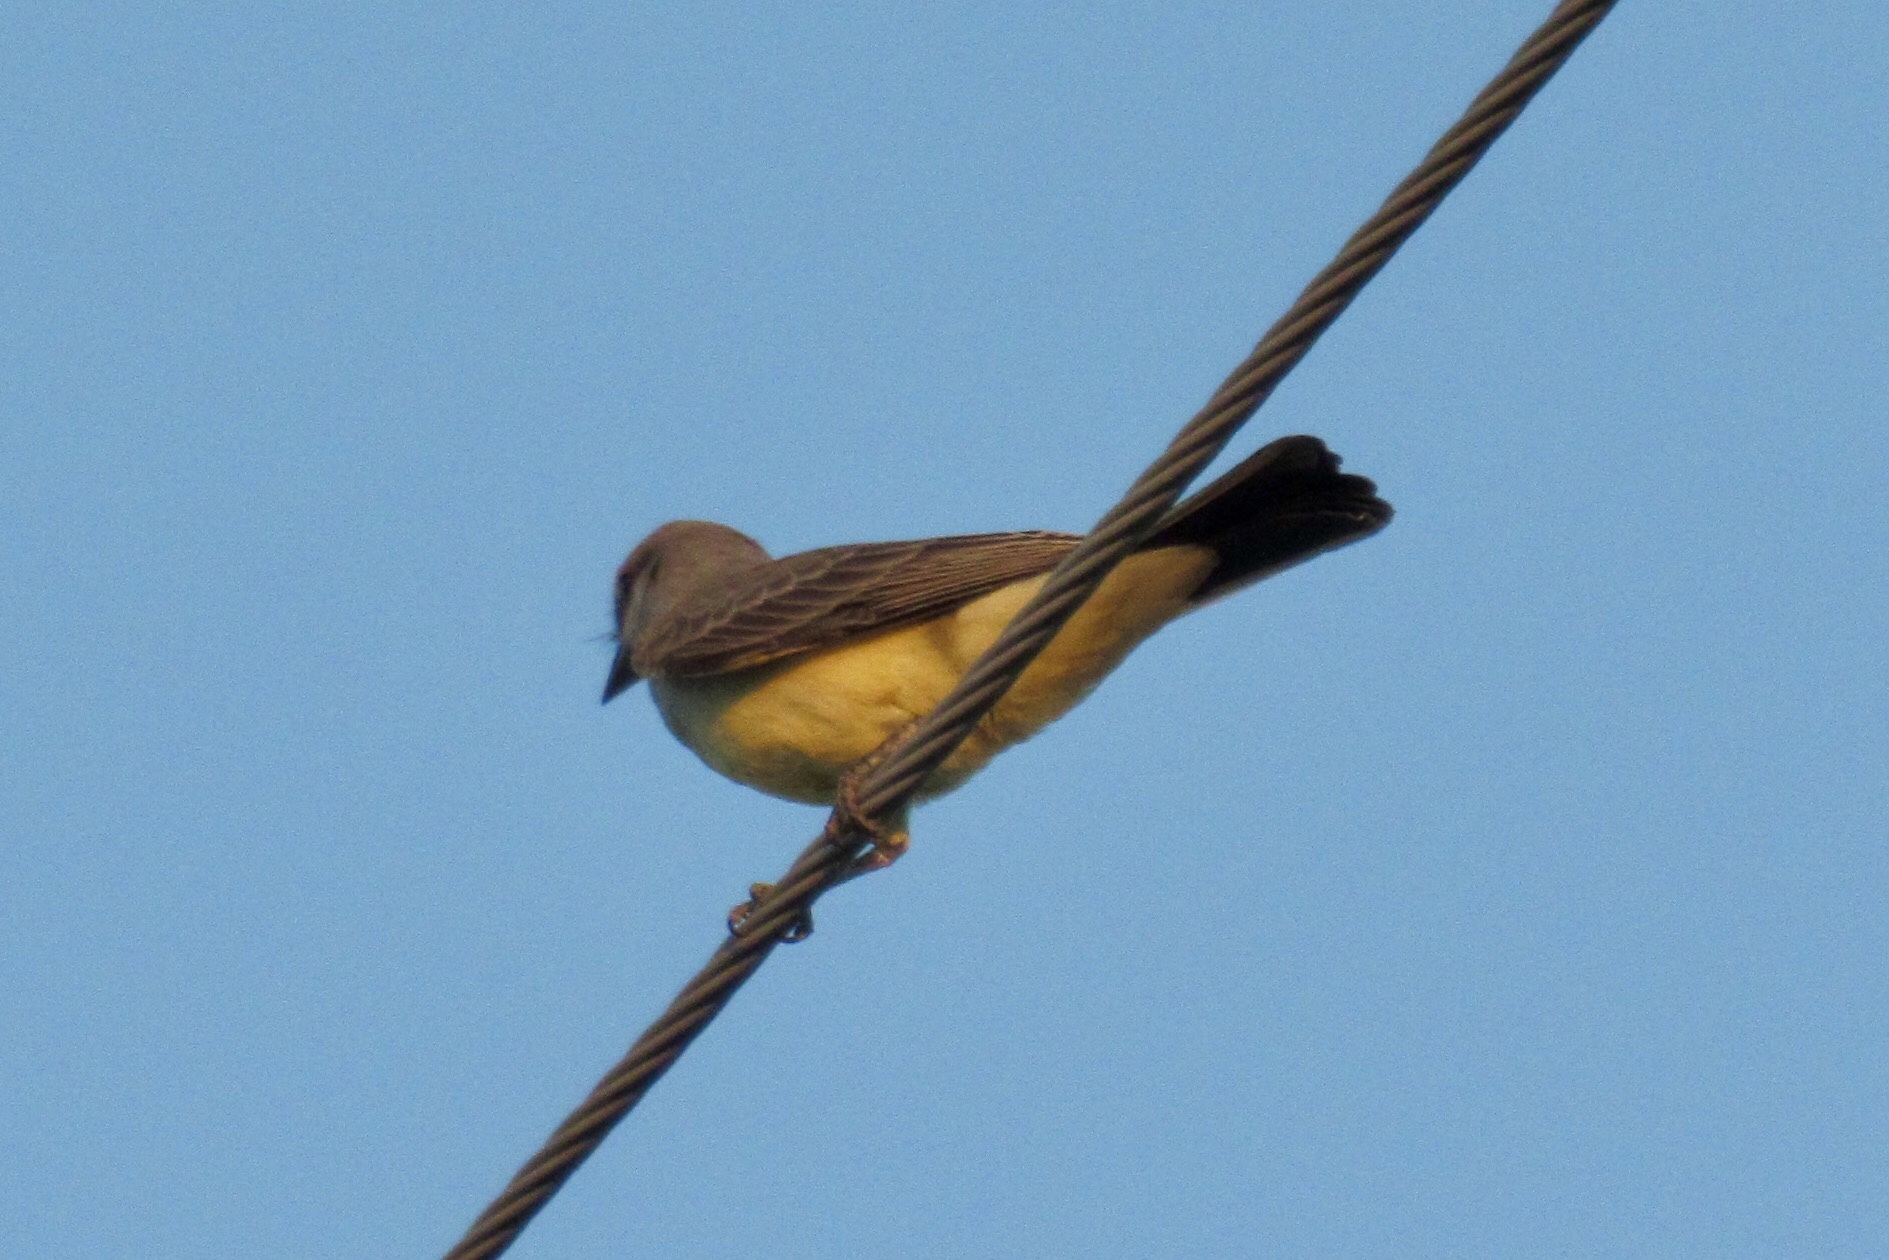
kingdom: Animalia
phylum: Chordata
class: Aves
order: Passeriformes
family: Tyrannidae
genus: Tyrannus
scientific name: Tyrannus verticalis
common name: Western kingbird
